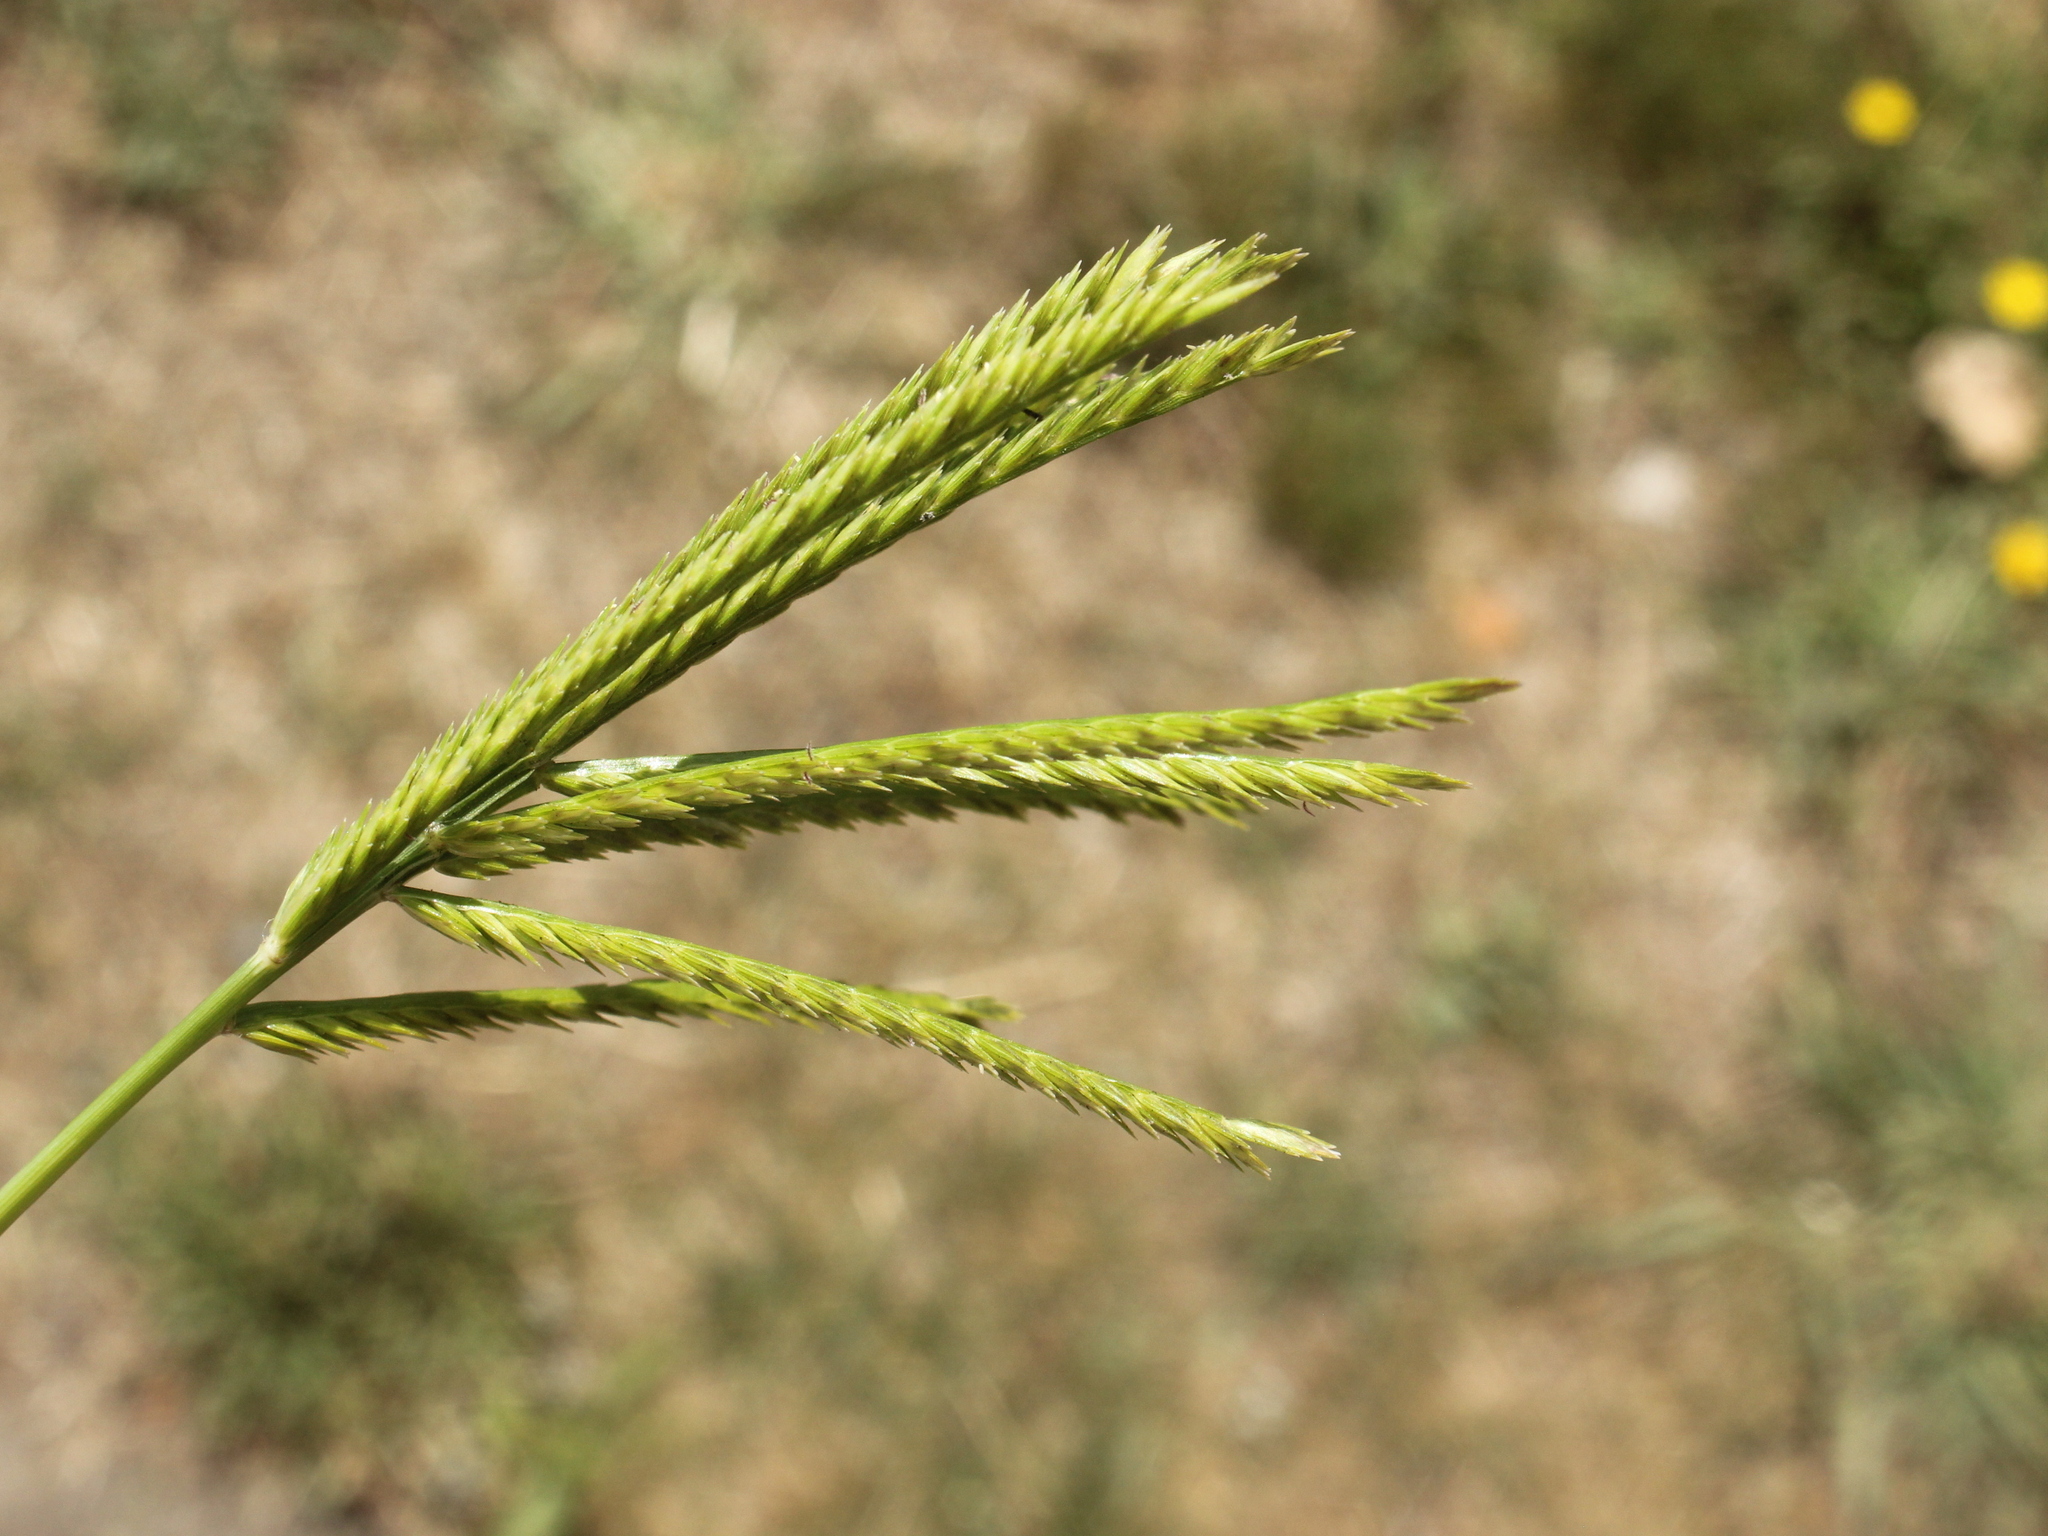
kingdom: Plantae
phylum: Tracheophyta
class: Liliopsida
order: Poales
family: Poaceae
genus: Eleusine
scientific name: Eleusine indica
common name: Yard-grass
